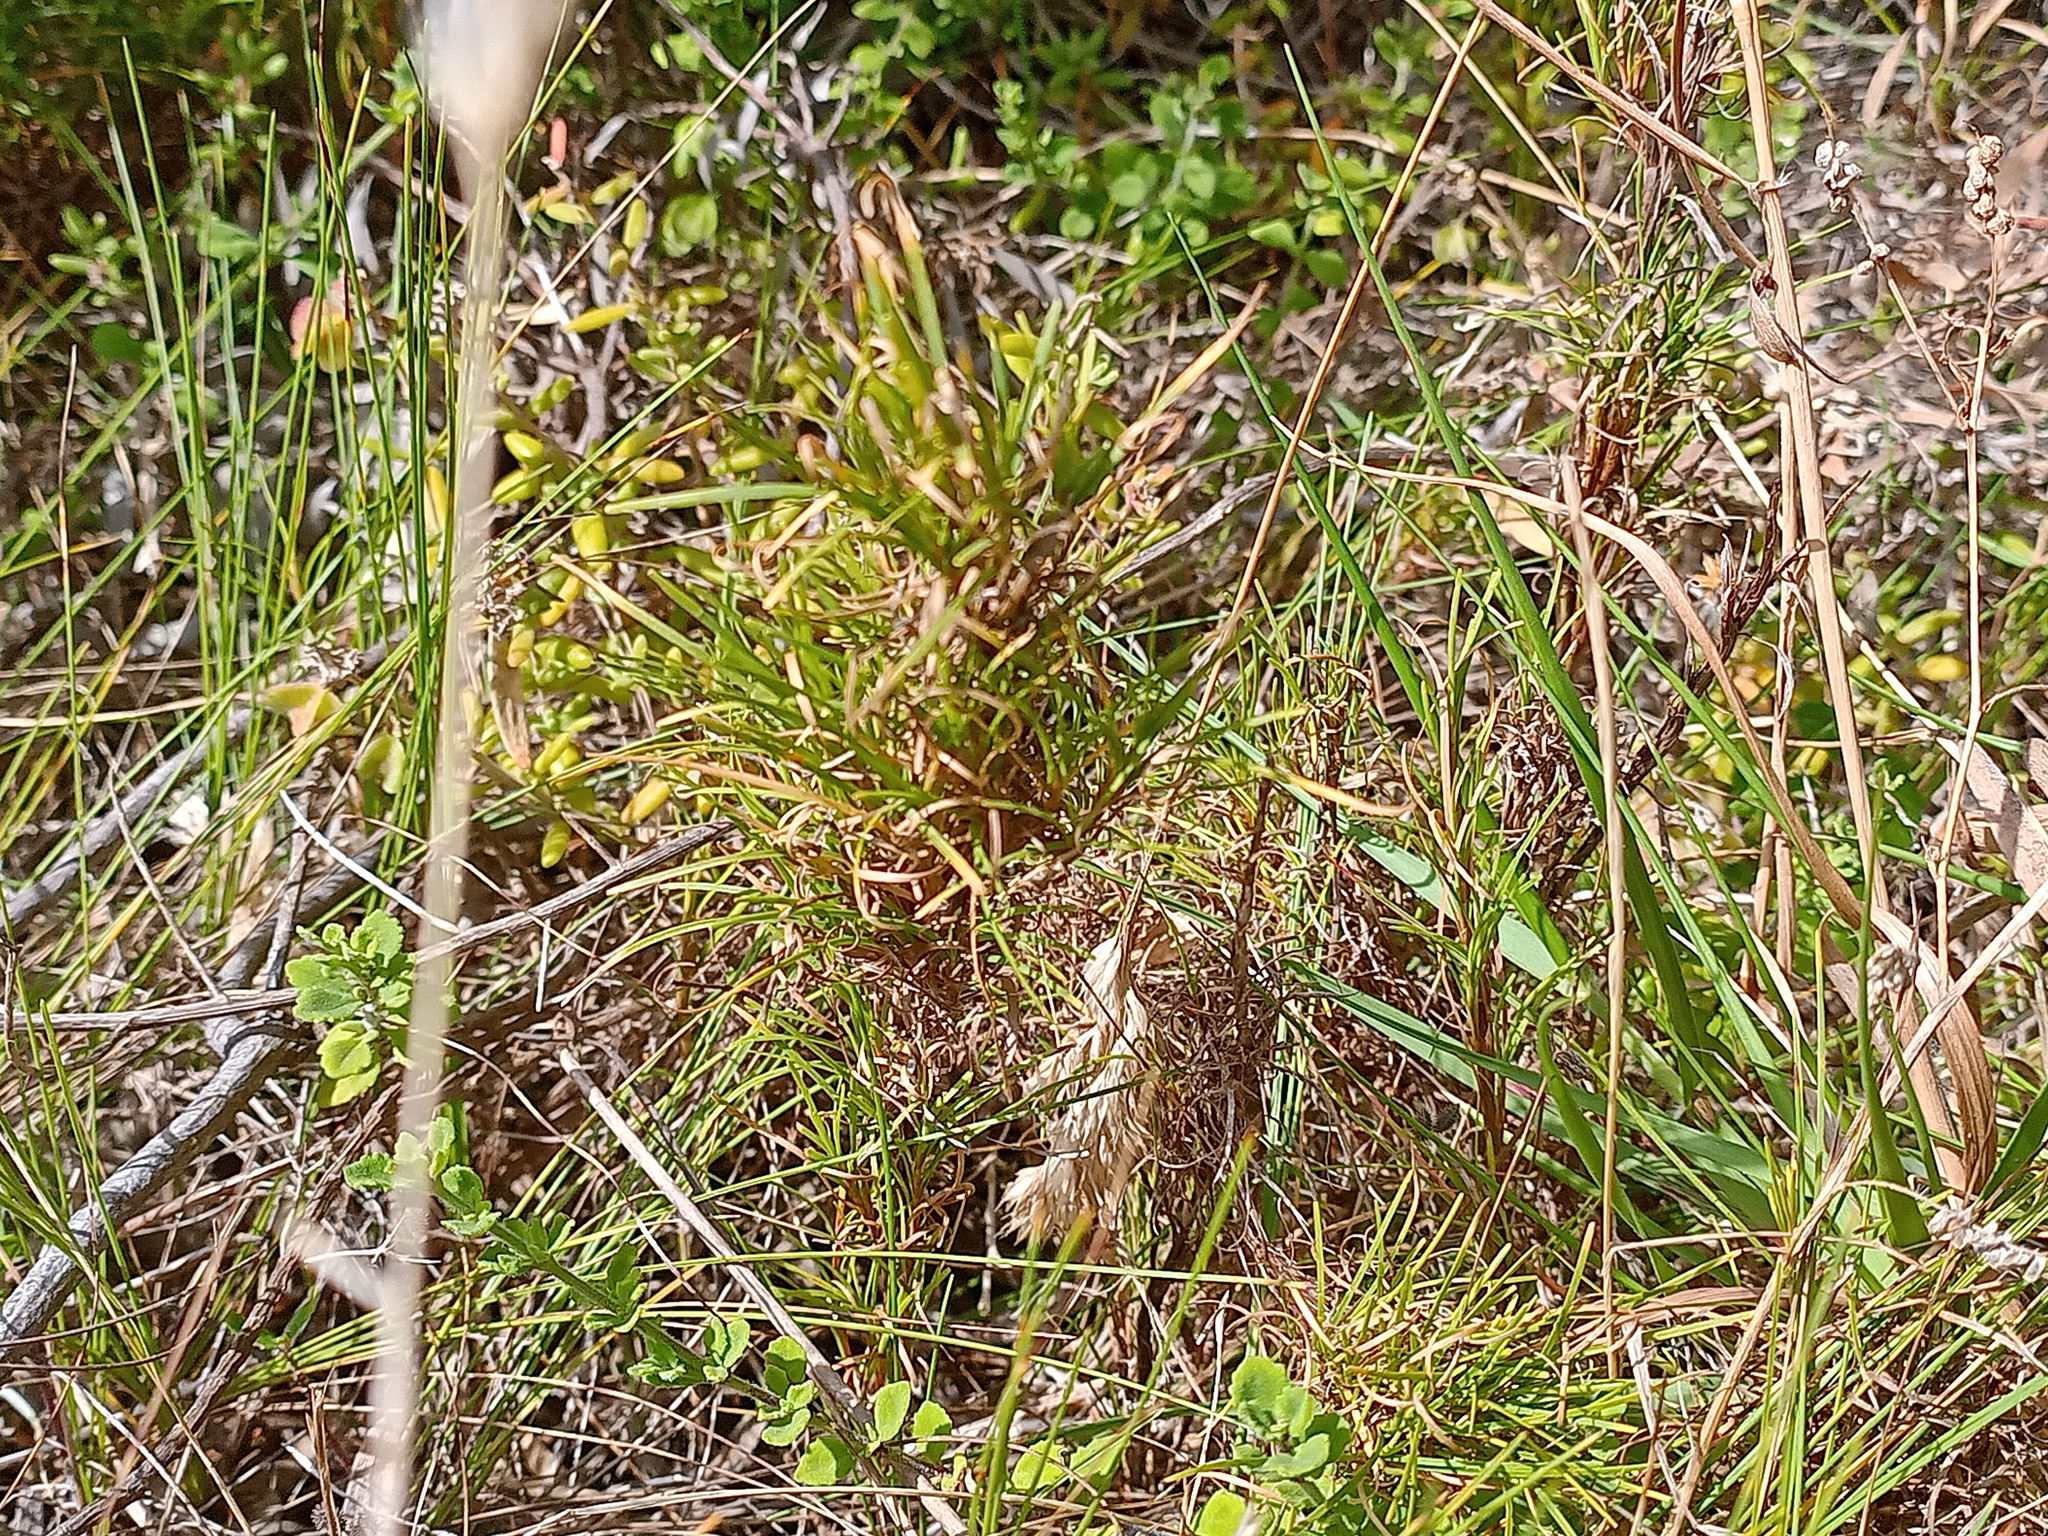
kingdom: Plantae
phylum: Tracheophyta
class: Liliopsida
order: Poales
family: Cyperaceae
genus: Ficinia
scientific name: Ficinia ramosissima
